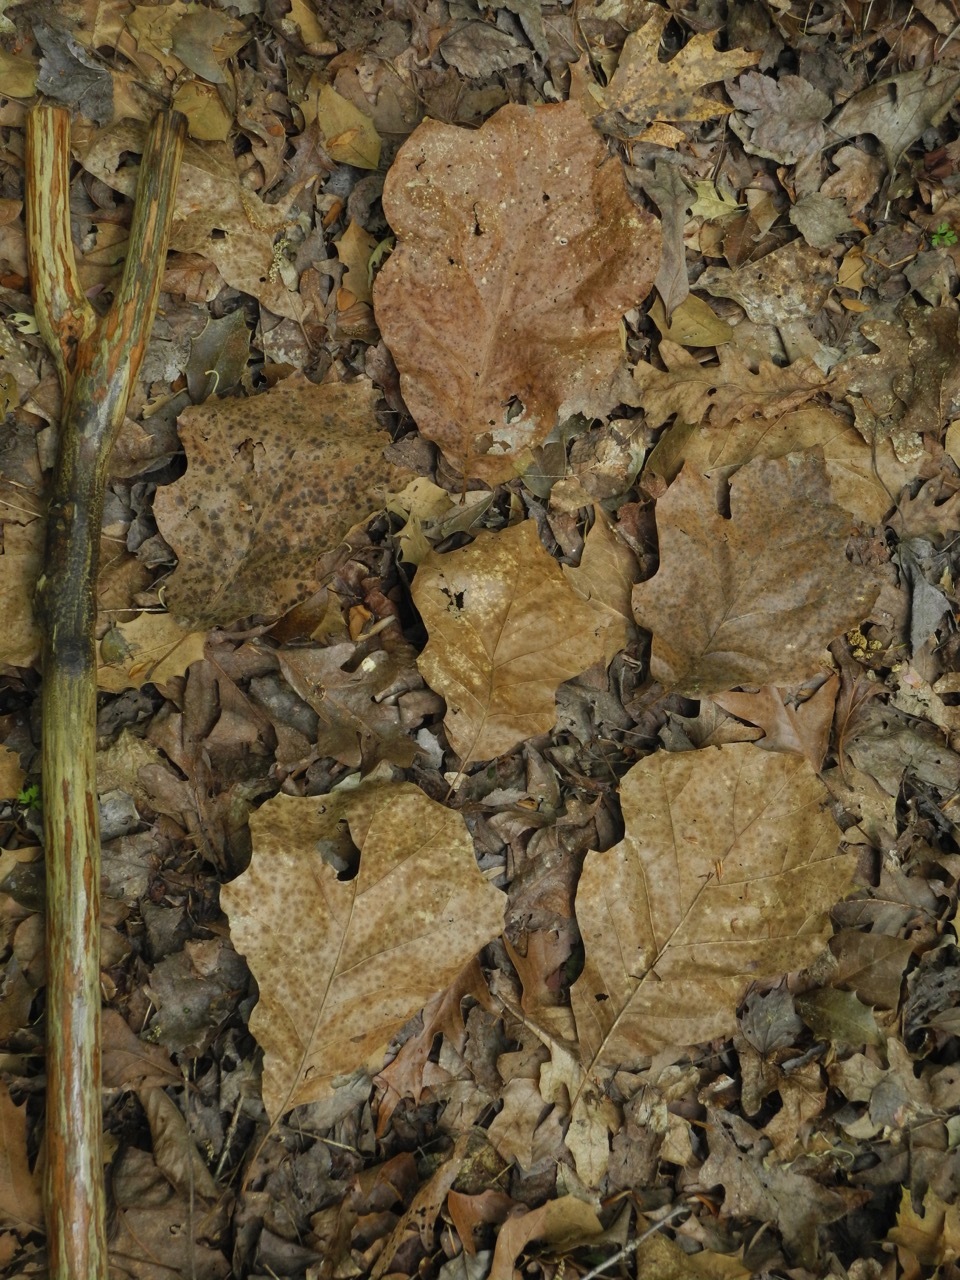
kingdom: Plantae
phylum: Tracheophyta
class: Magnoliopsida
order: Fagales
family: Fagaceae
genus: Quercus
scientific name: Quercus velutina
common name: Black oak
